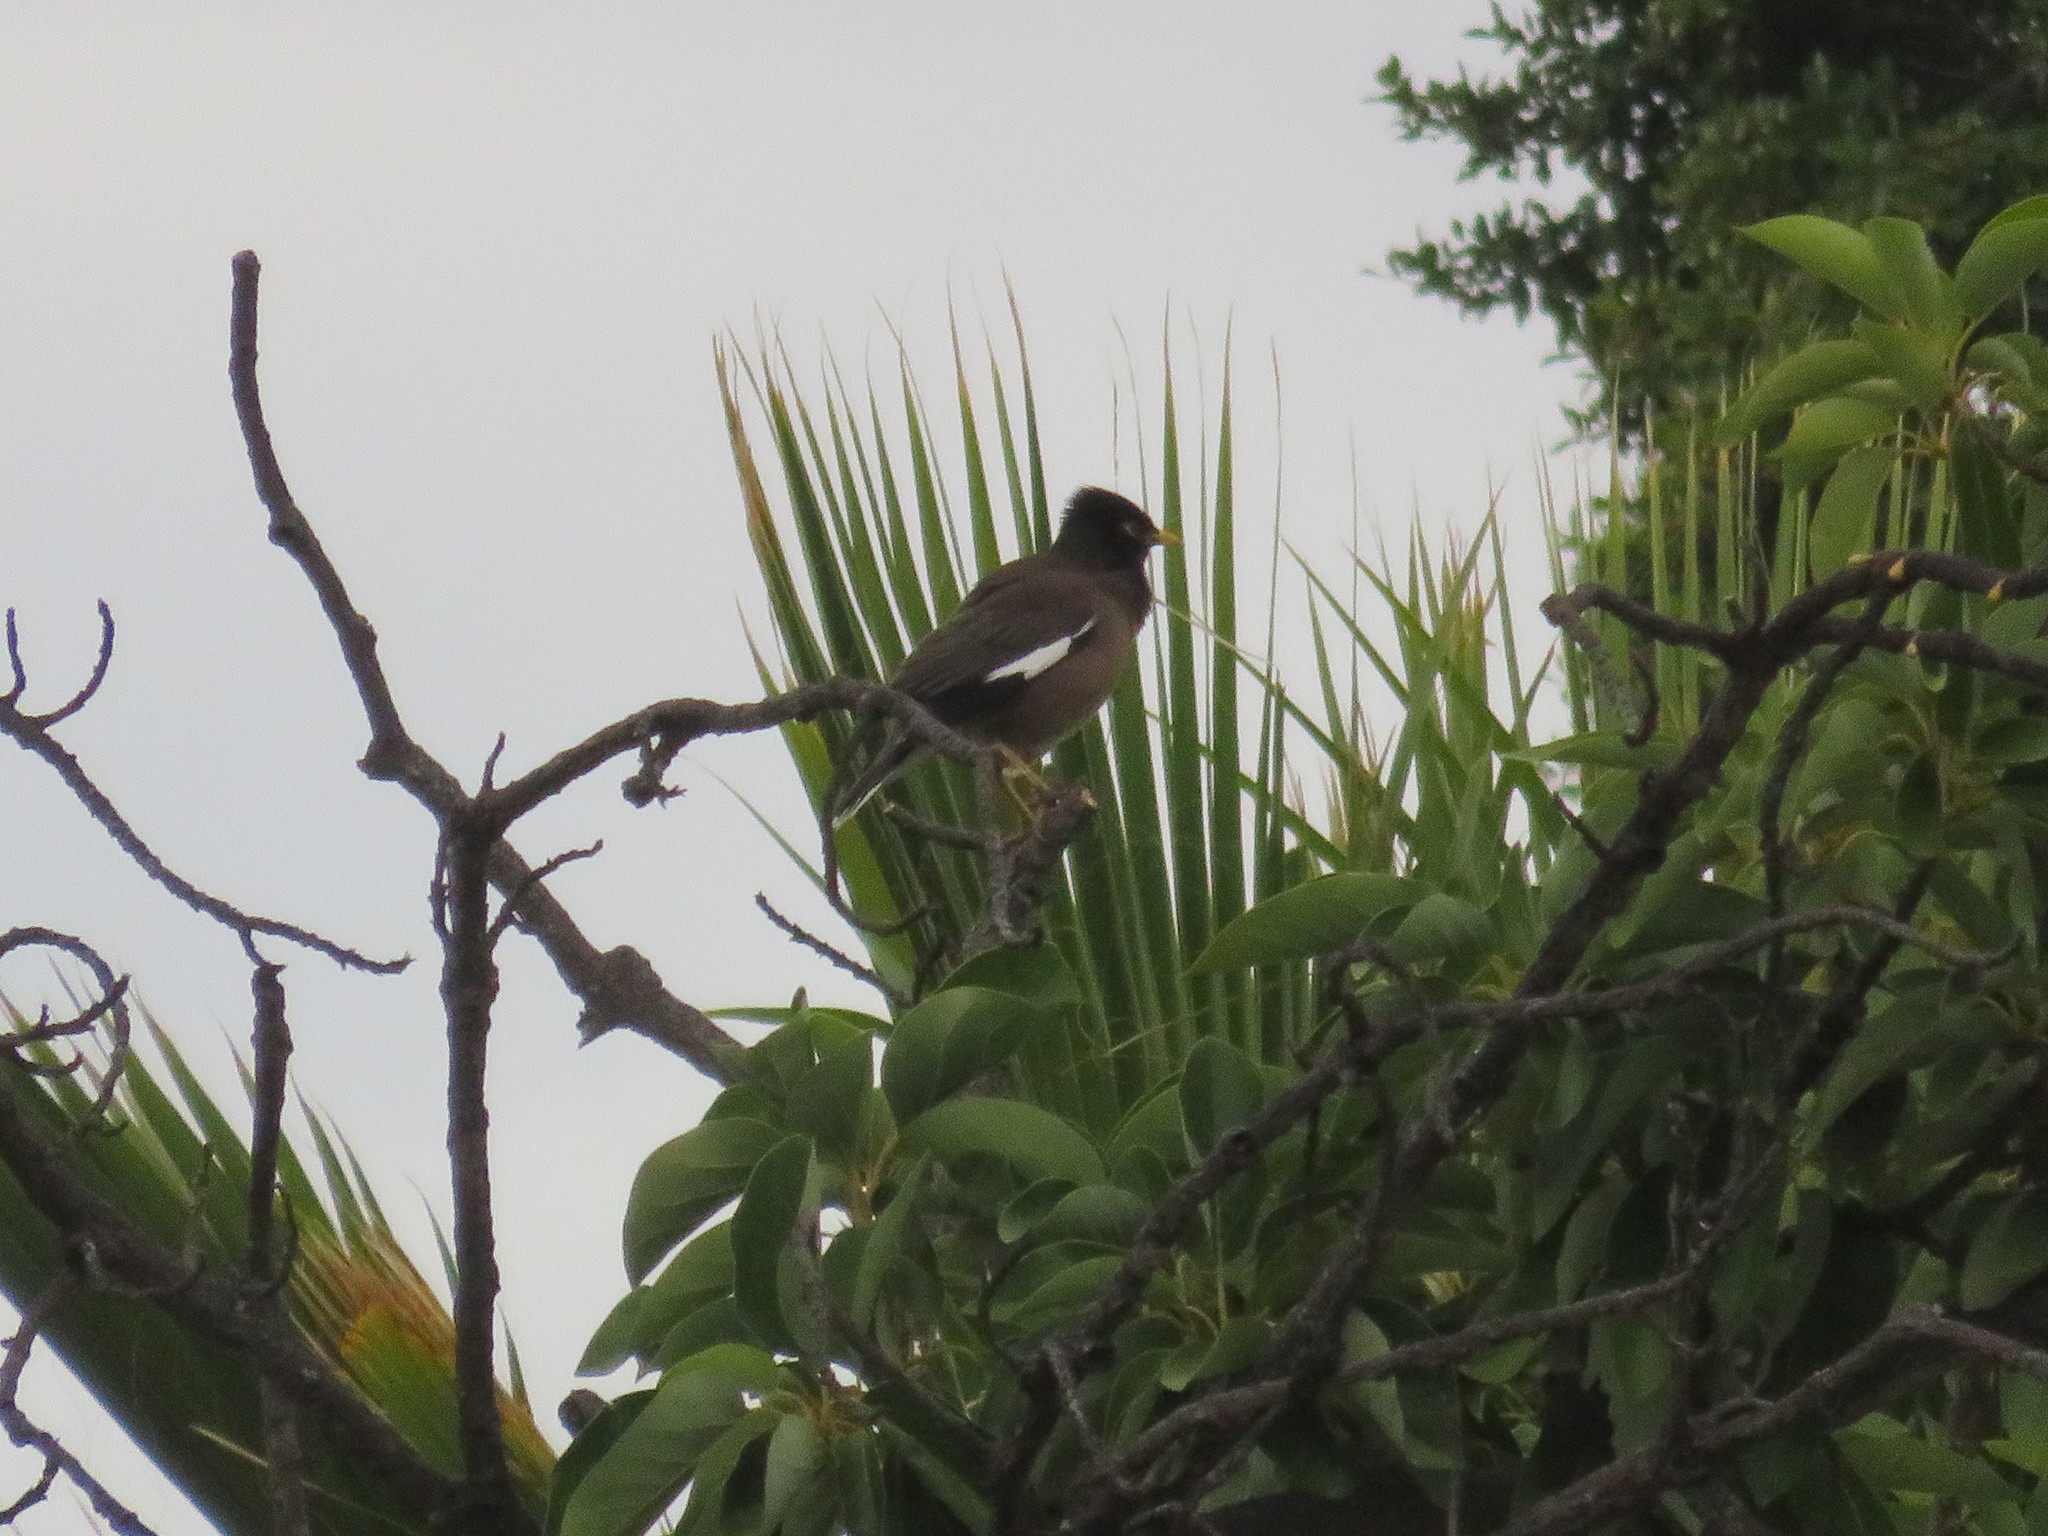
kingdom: Animalia
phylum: Chordata
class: Aves
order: Passeriformes
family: Sturnidae
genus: Acridotheres
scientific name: Acridotheres tristis
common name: Common myna
